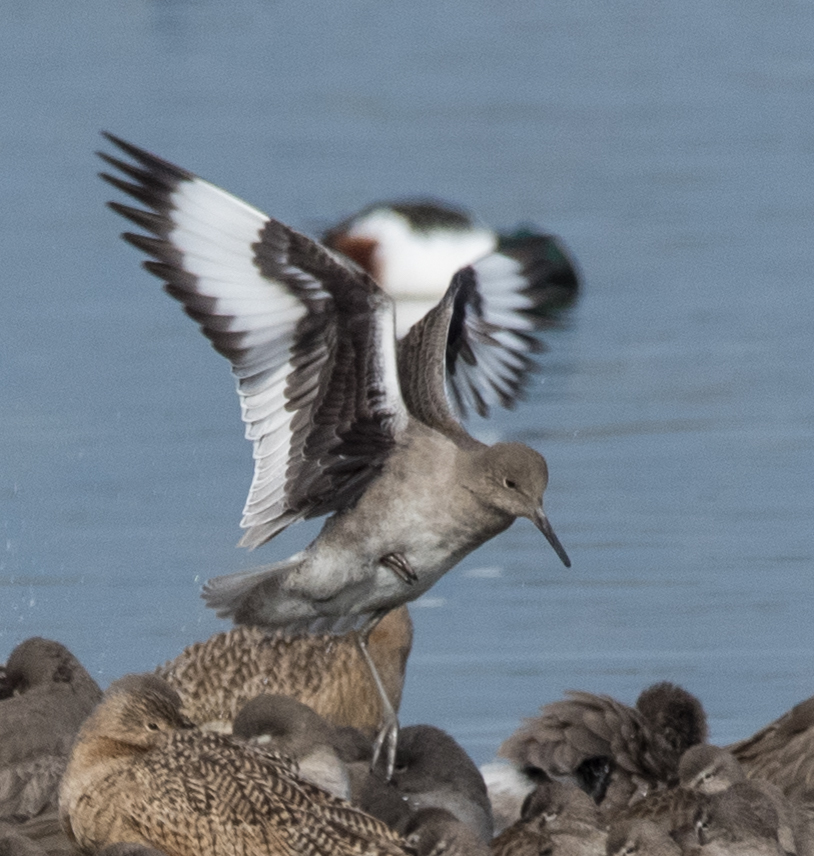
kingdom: Animalia
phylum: Chordata
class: Aves
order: Charadriiformes
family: Scolopacidae
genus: Tringa
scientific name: Tringa semipalmata
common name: Willet
